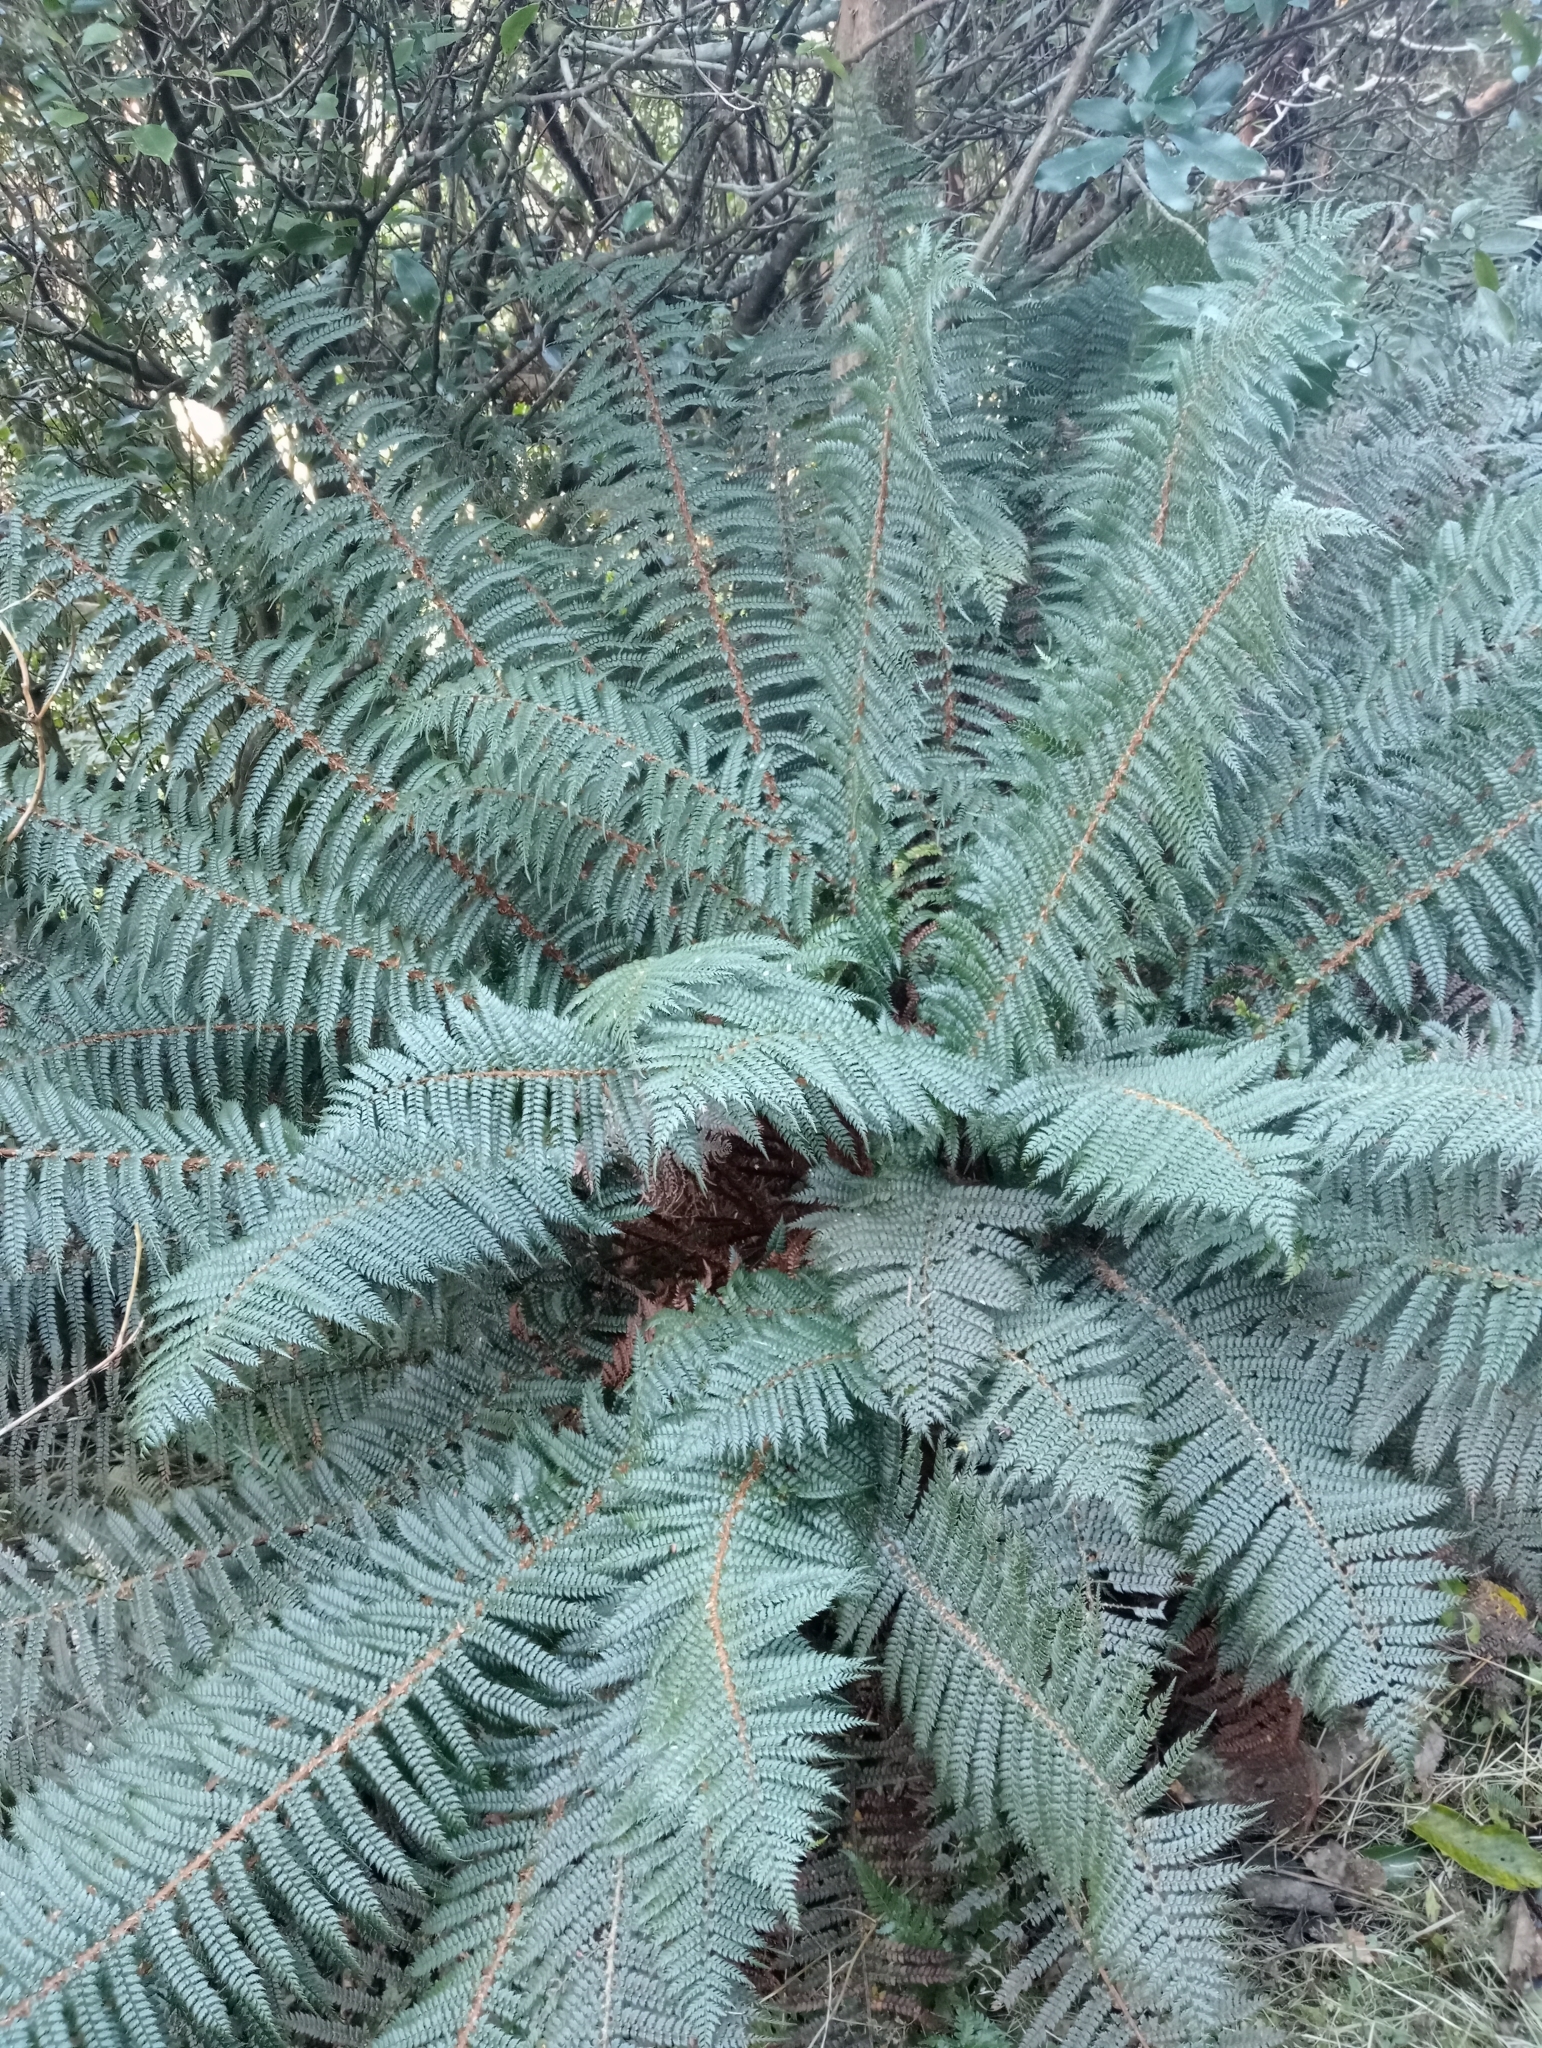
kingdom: Plantae
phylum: Tracheophyta
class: Polypodiopsida
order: Polypodiales
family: Dryopteridaceae
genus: Polystichum
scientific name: Polystichum vestitum
